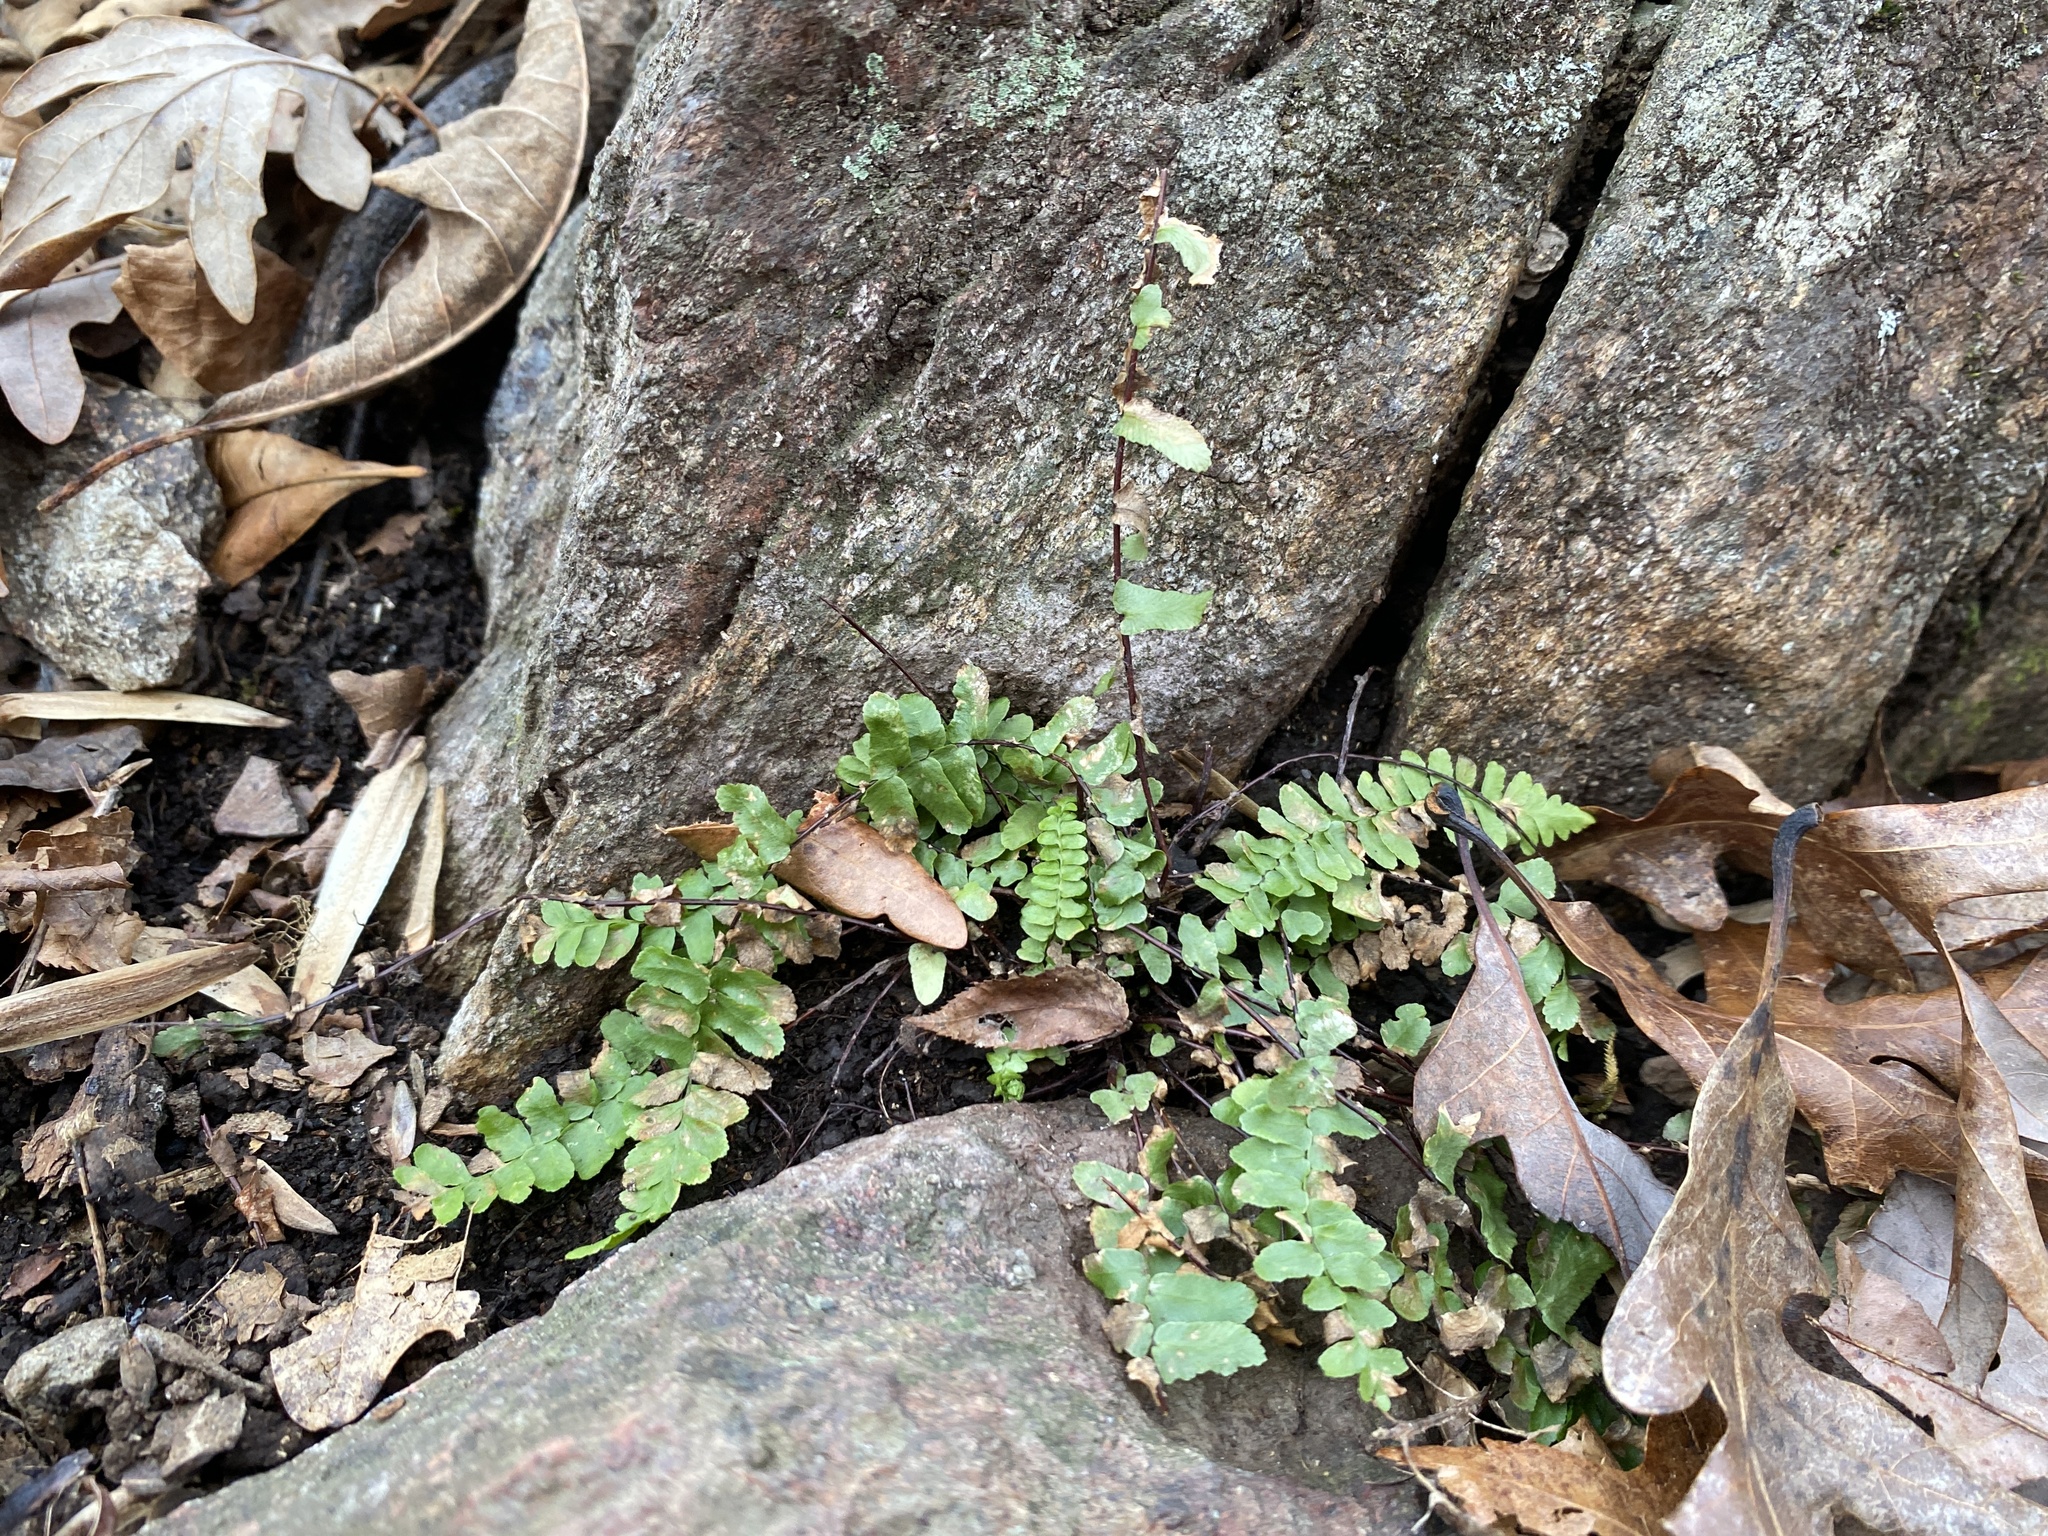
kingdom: Plantae
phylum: Tracheophyta
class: Polypodiopsida
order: Polypodiales
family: Aspleniaceae
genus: Asplenium
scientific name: Asplenium platyneuron
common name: Ebony spleenwort
